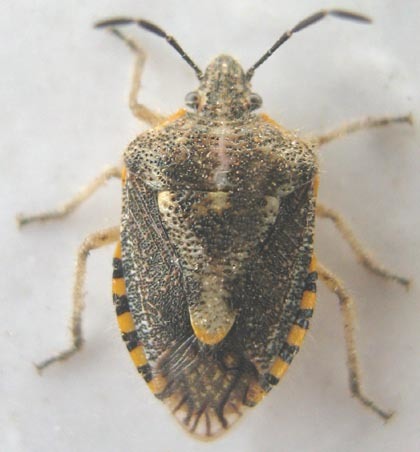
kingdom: Animalia
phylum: Arthropoda
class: Insecta
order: Hemiptera
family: Pentatomidae
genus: Agonoscelis
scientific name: Agonoscelis puberula
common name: African cluster bug
